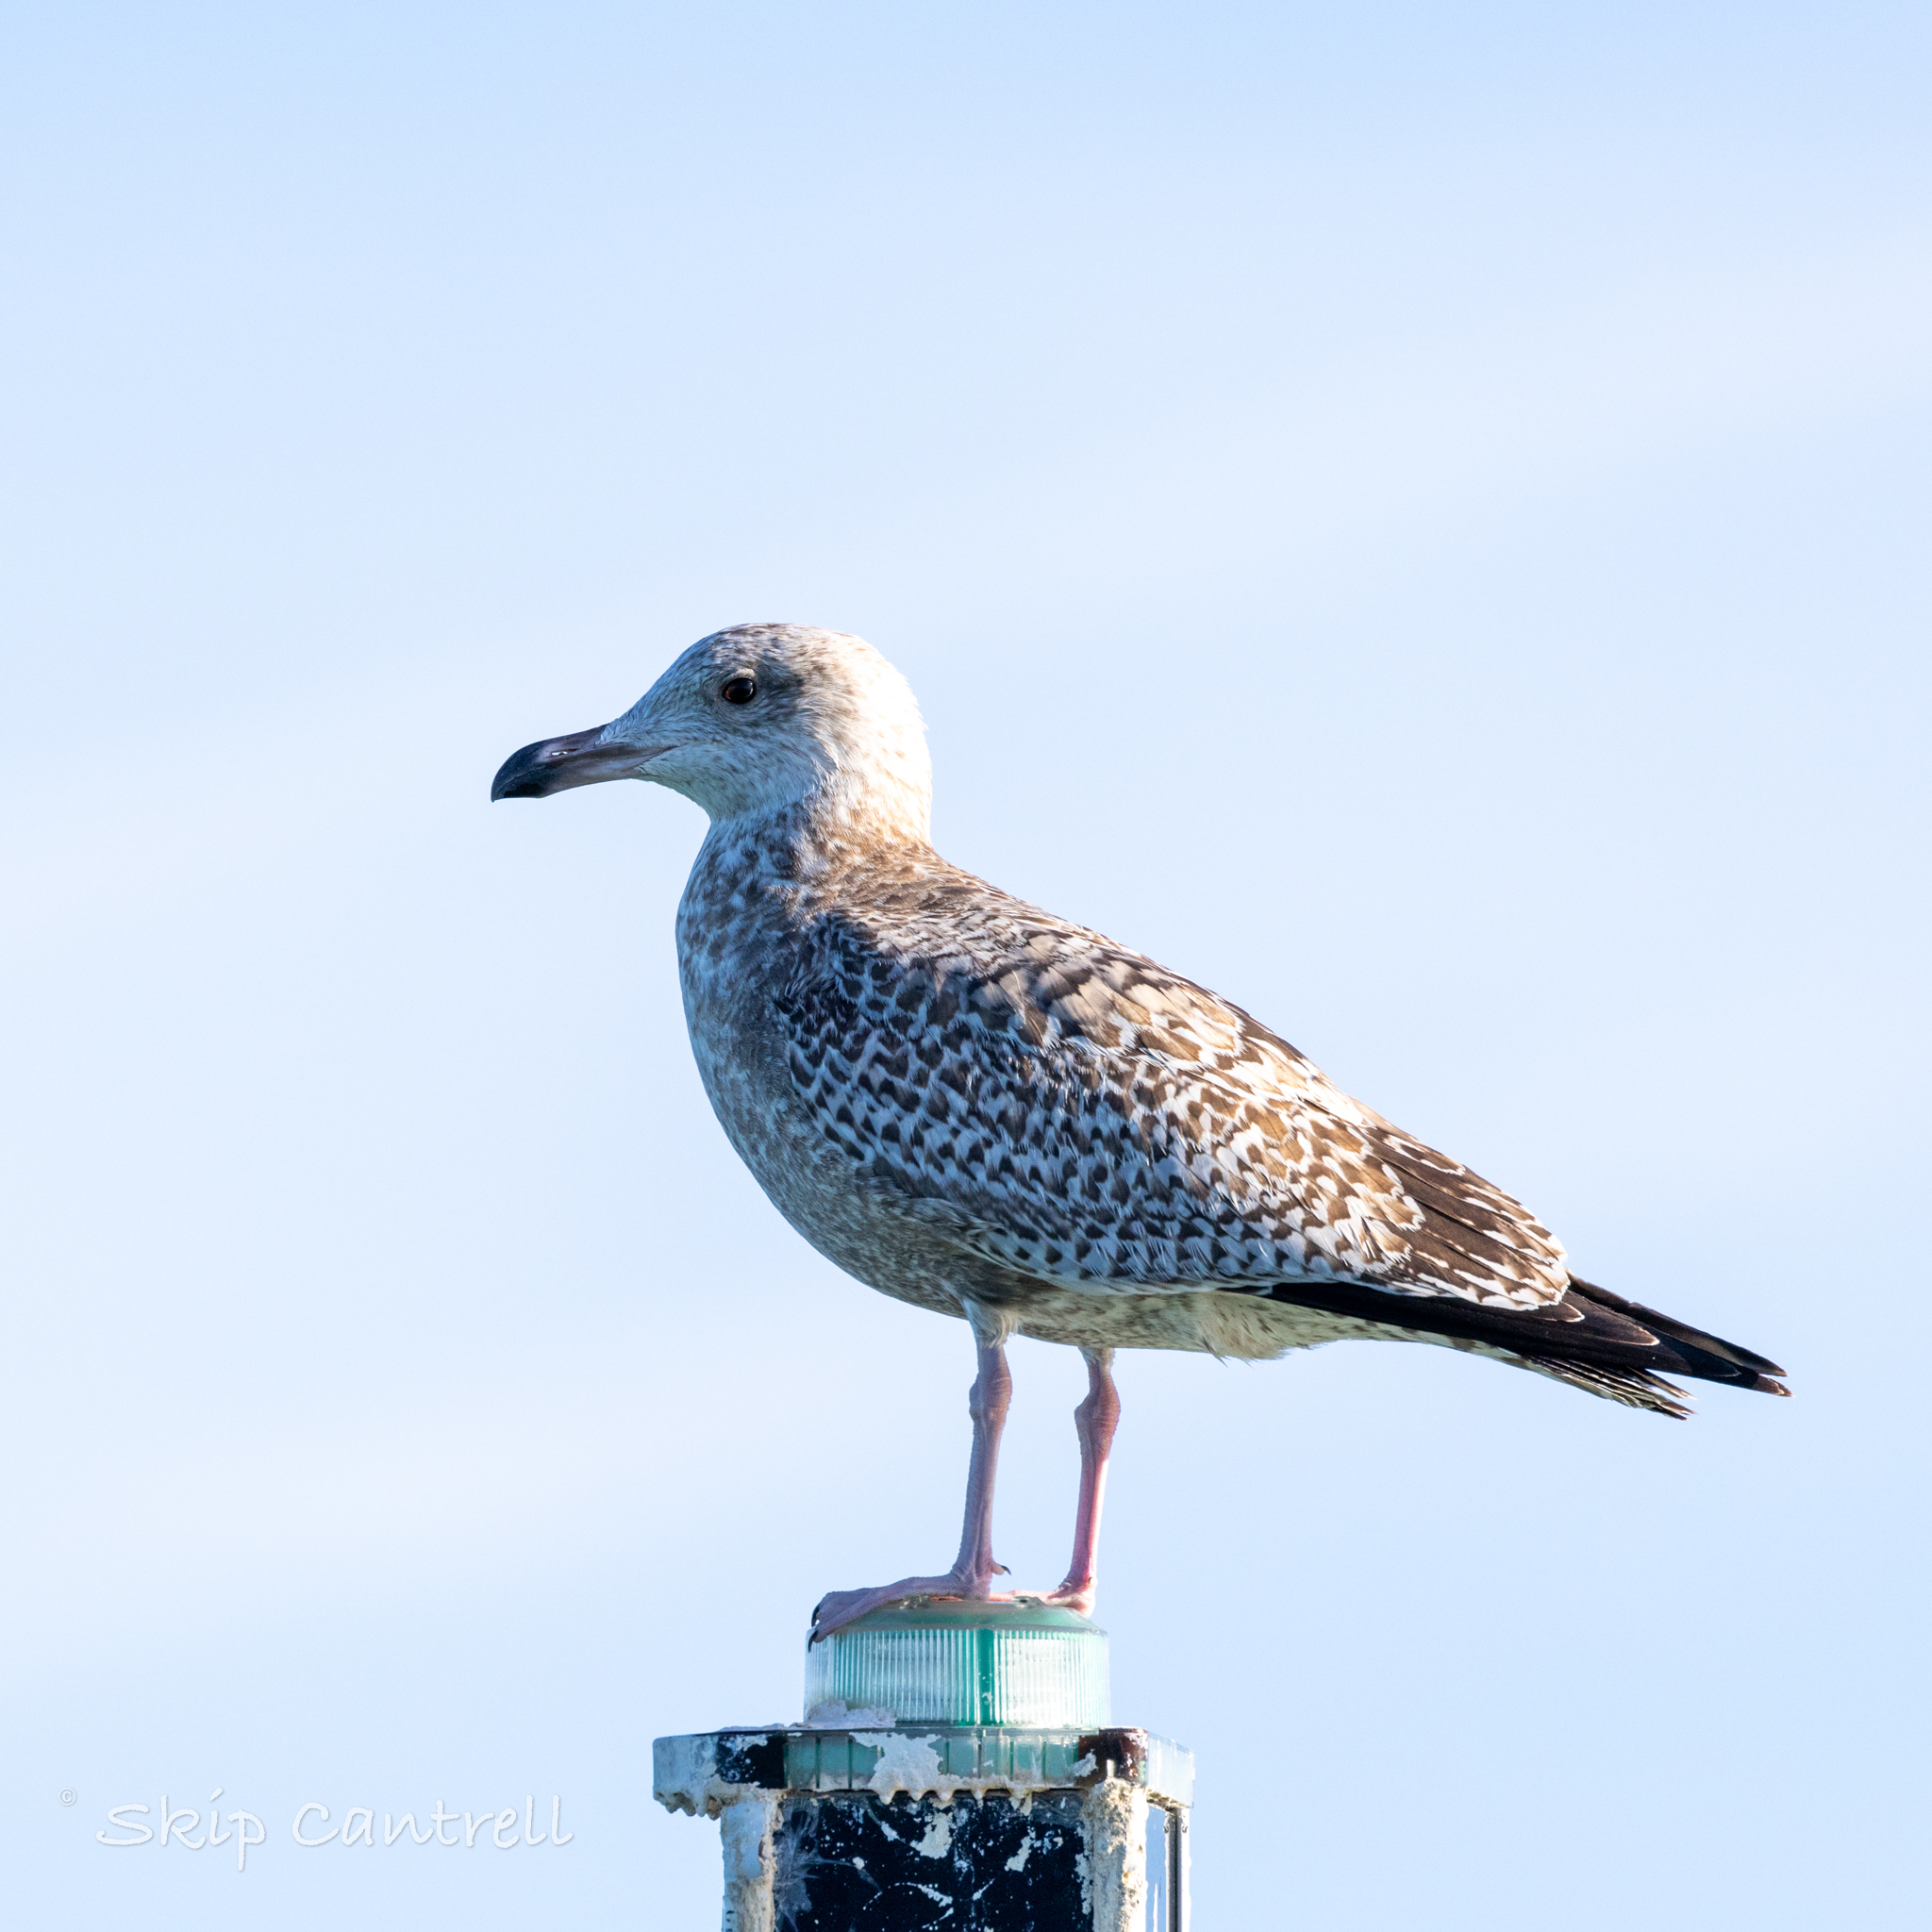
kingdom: Animalia
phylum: Chordata
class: Aves
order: Charadriiformes
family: Laridae
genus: Larus
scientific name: Larus argentatus
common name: Herring gull
